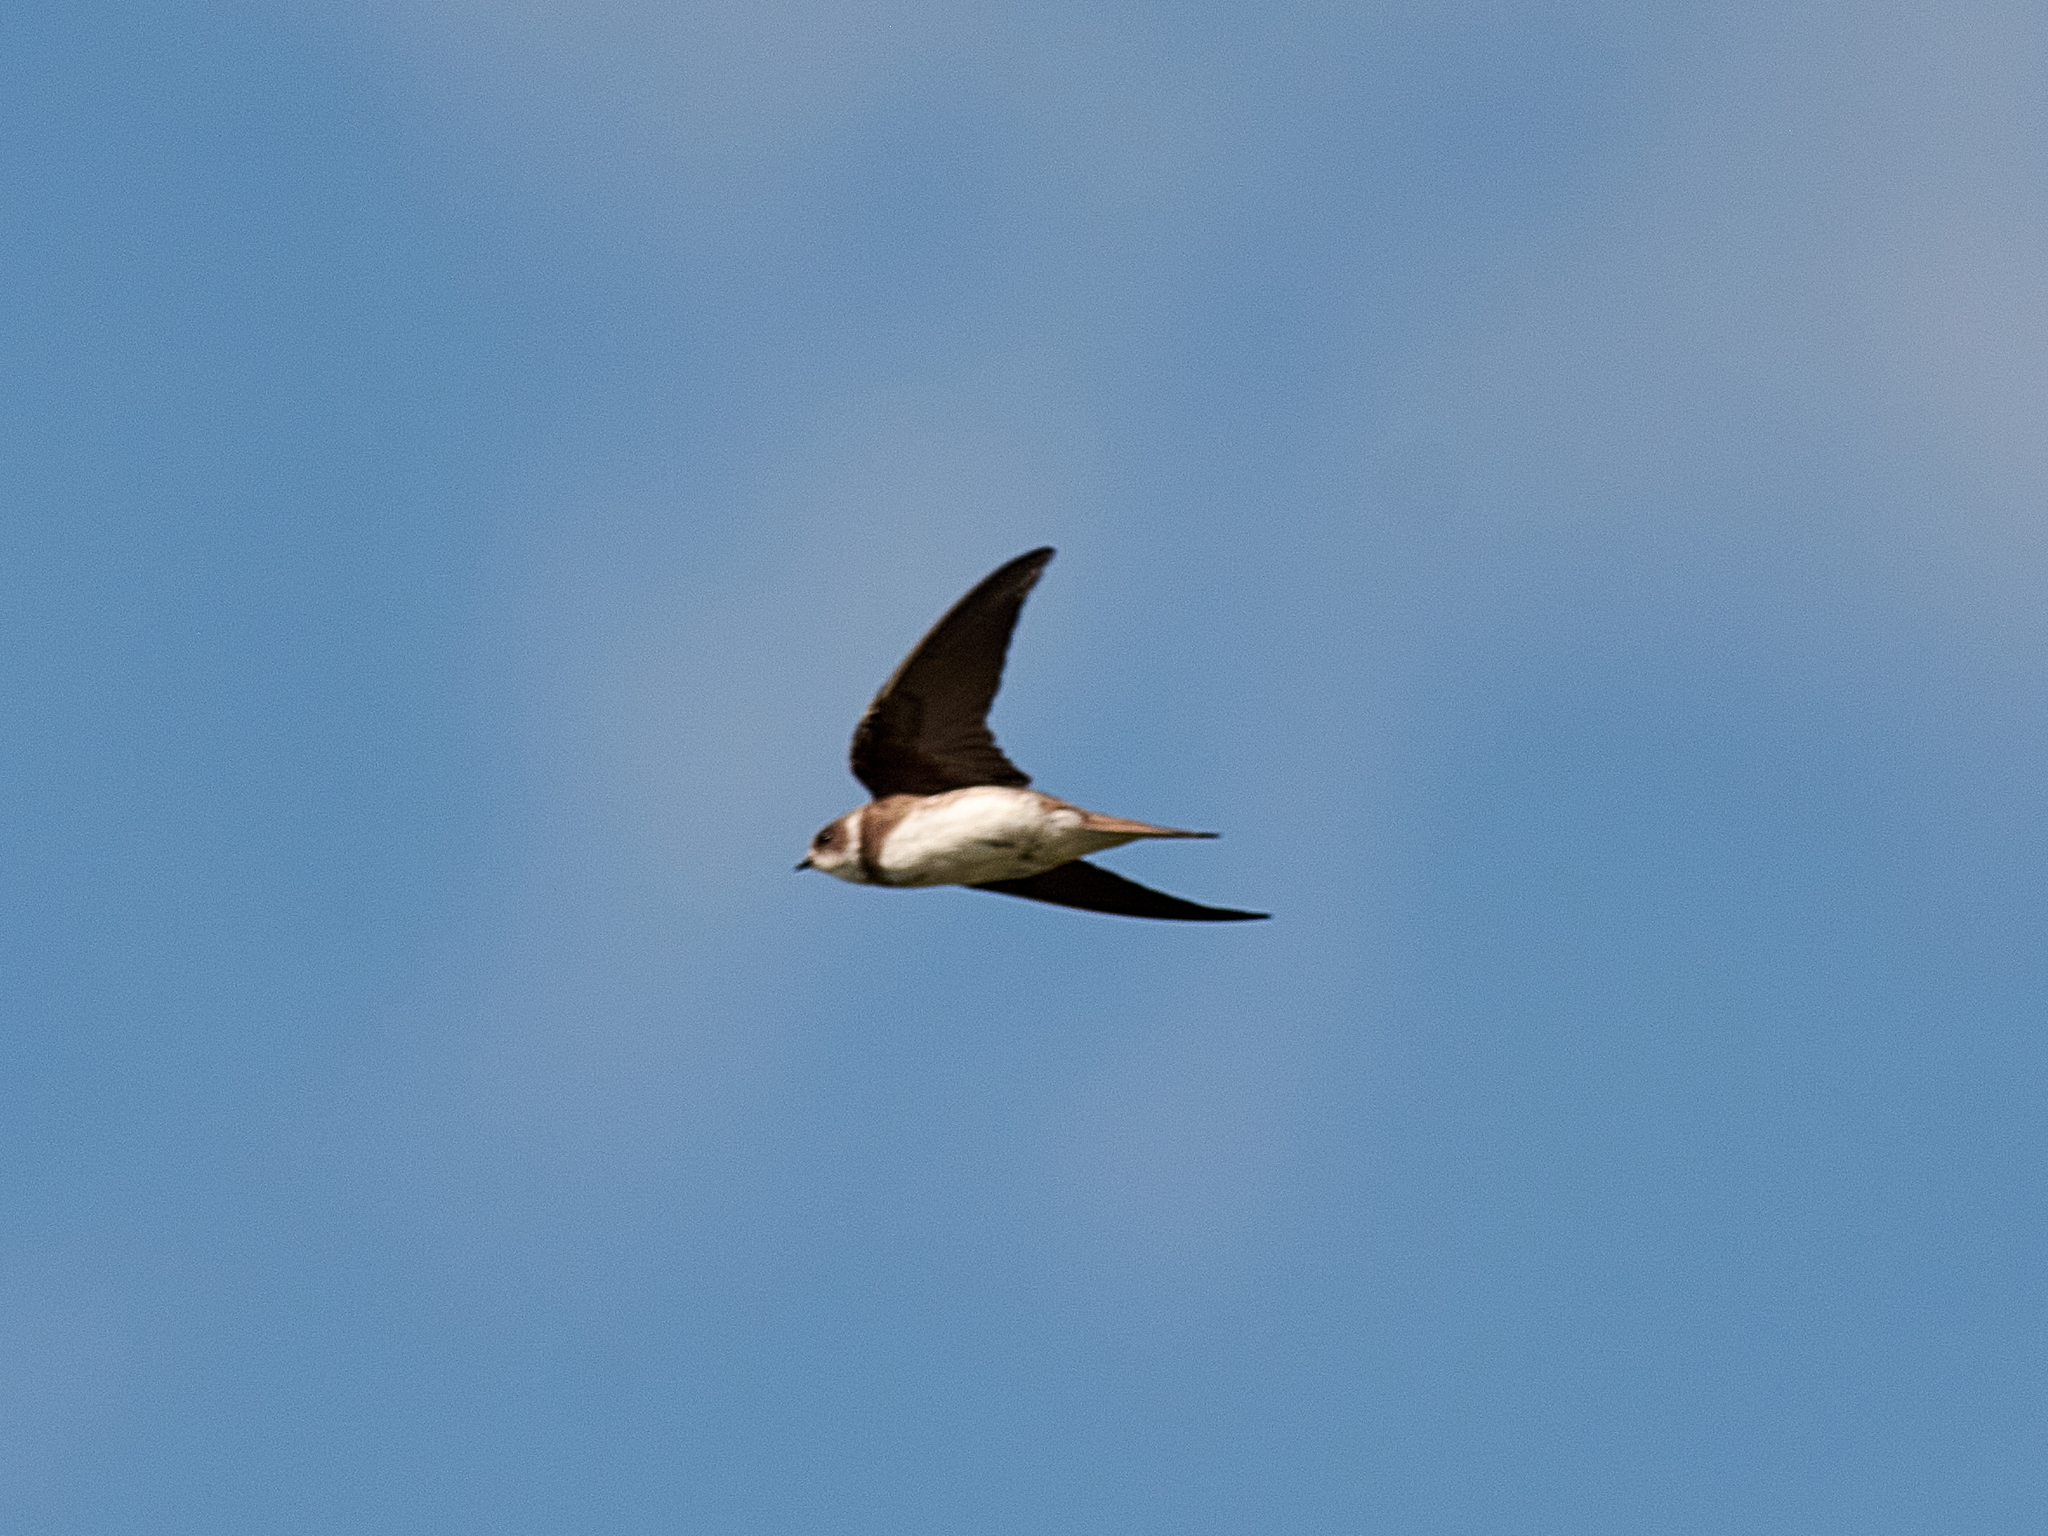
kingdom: Animalia
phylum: Chordata
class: Aves
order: Passeriformes
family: Hirundinidae
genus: Riparia
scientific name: Riparia riparia
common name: Sand martin
